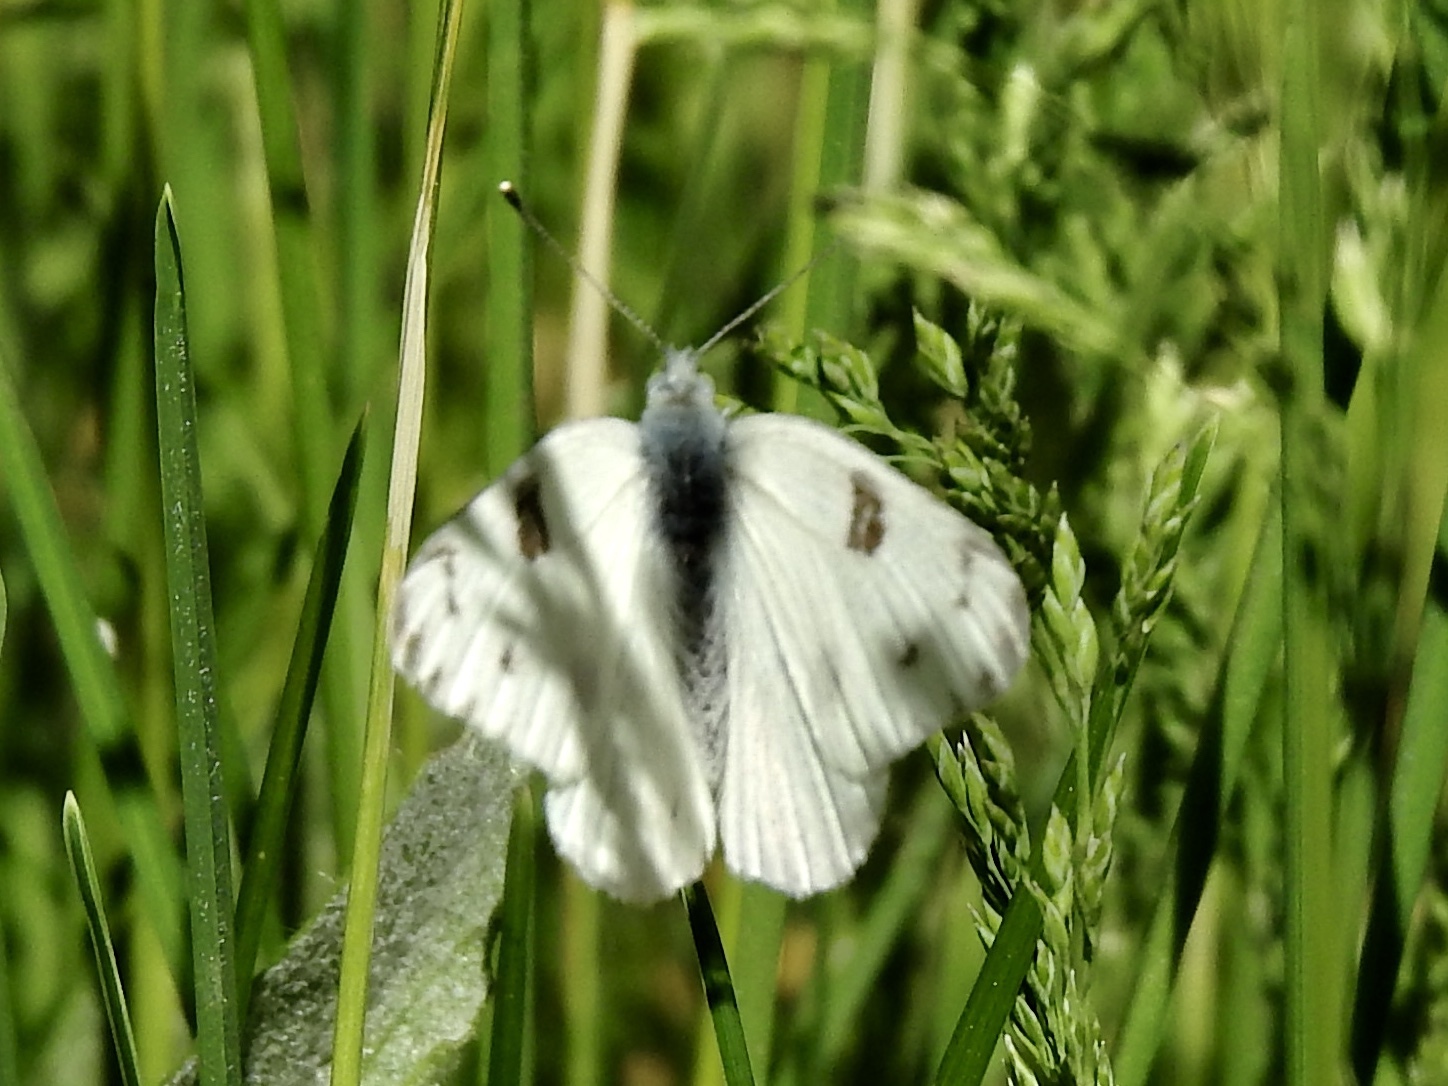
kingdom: Animalia
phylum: Arthropoda
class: Insecta
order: Lepidoptera
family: Pieridae
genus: Pontia
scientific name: Pontia protodice
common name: Checkered white
